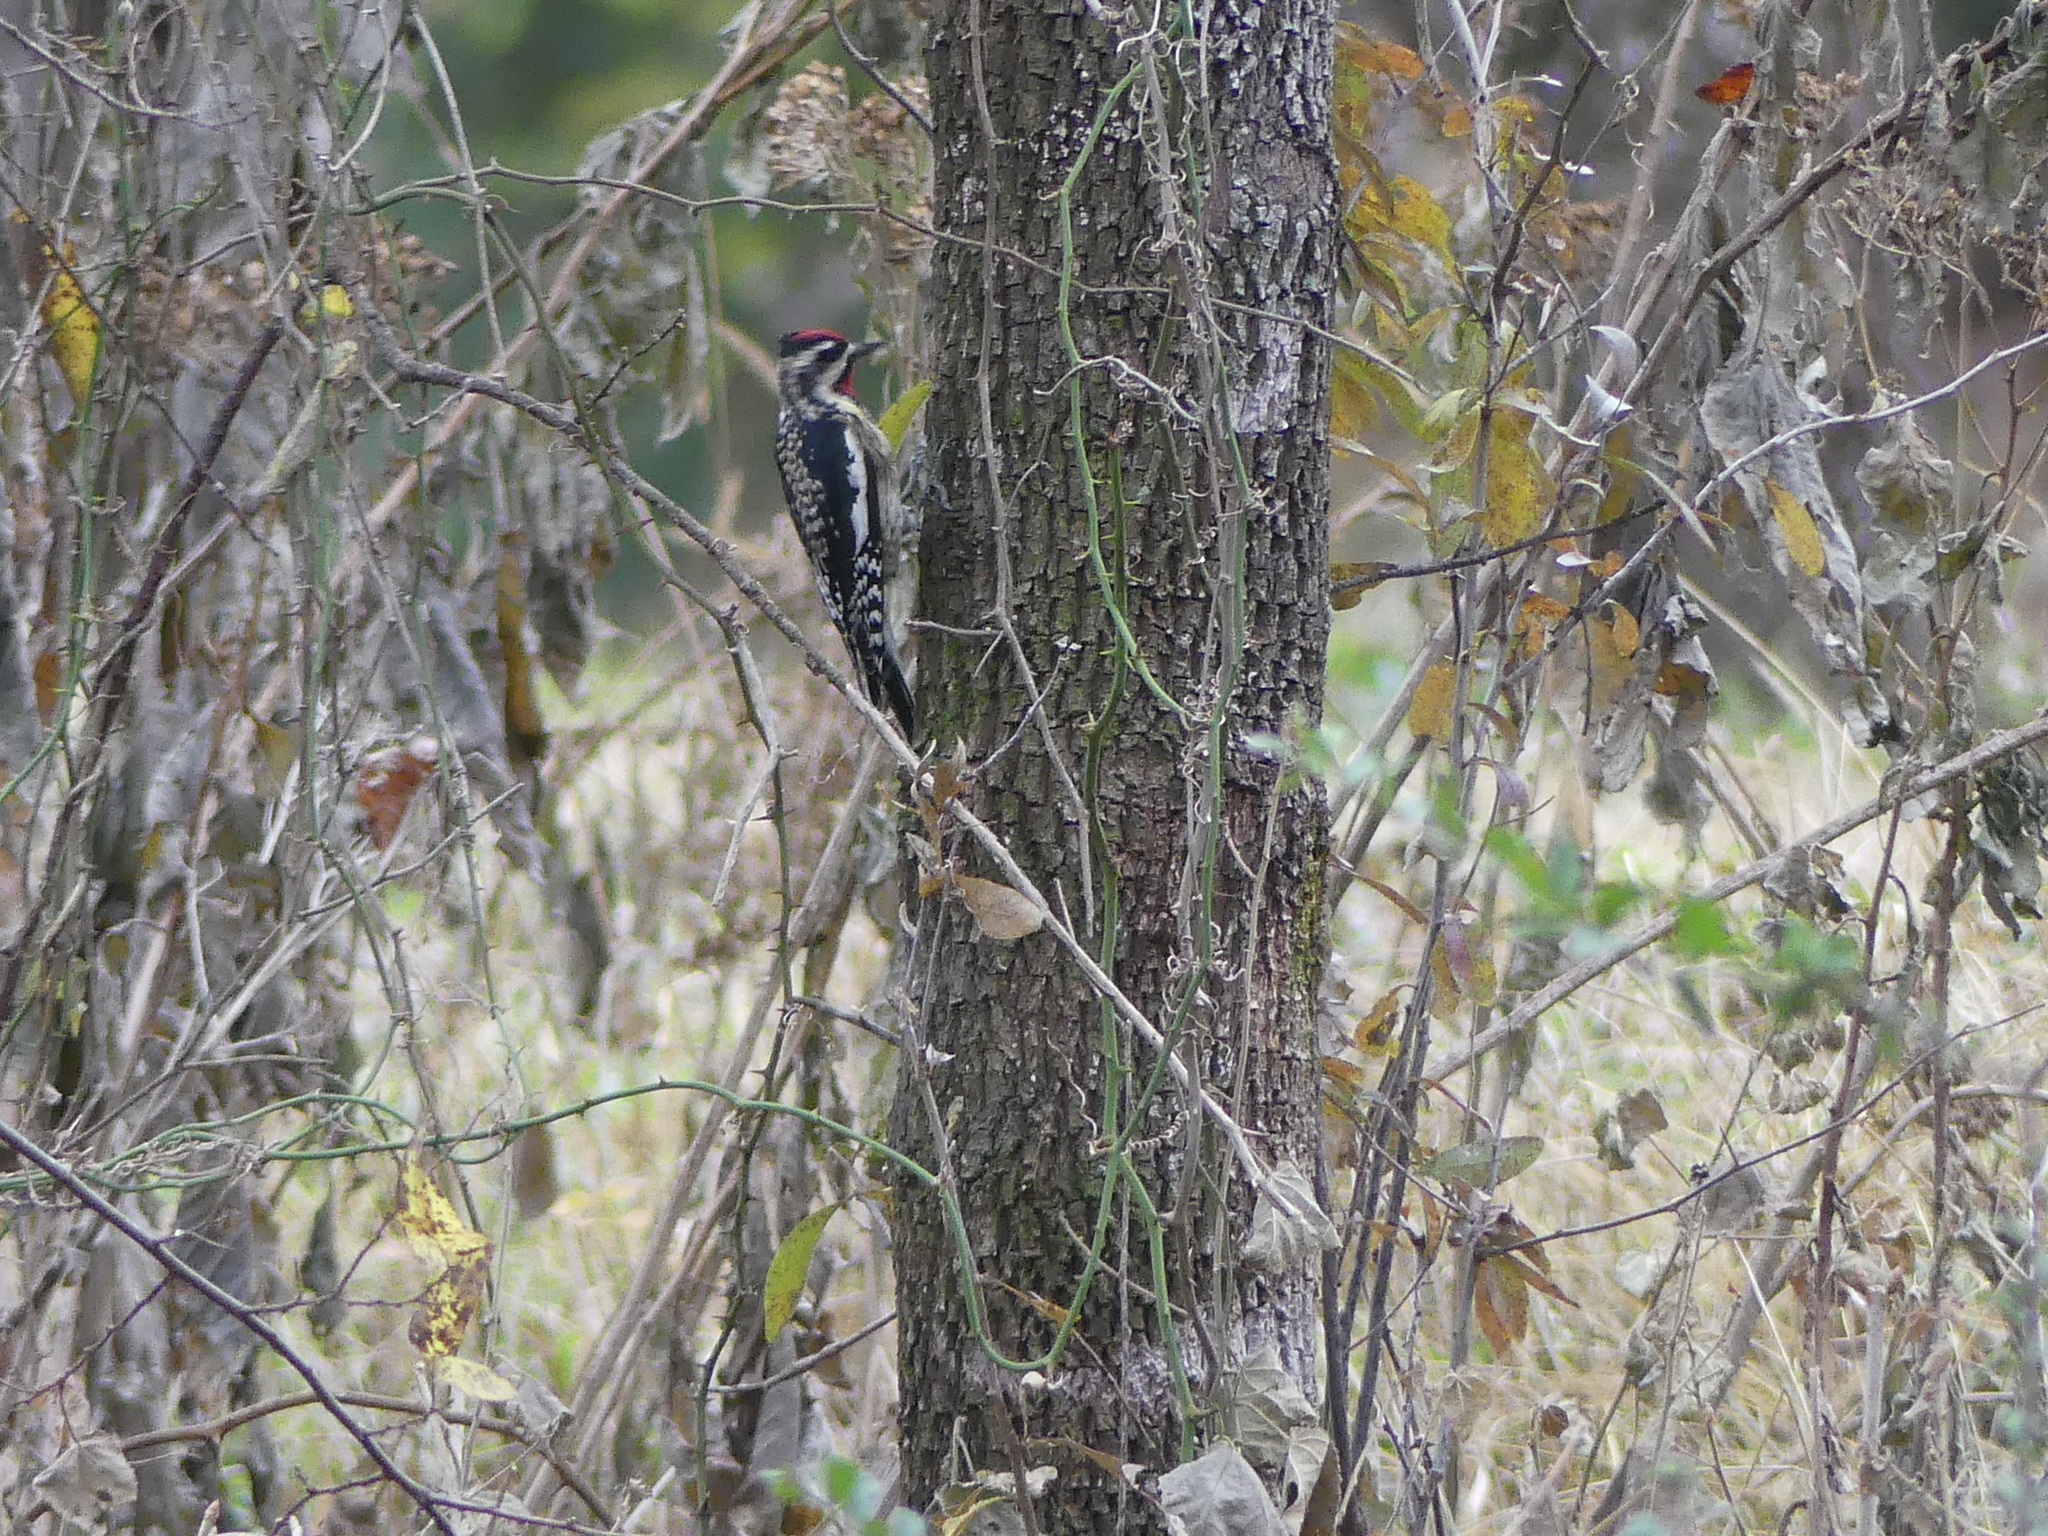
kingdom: Animalia
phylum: Chordata
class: Aves
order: Piciformes
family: Picidae
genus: Sphyrapicus
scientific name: Sphyrapicus varius
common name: Yellow-bellied sapsucker
